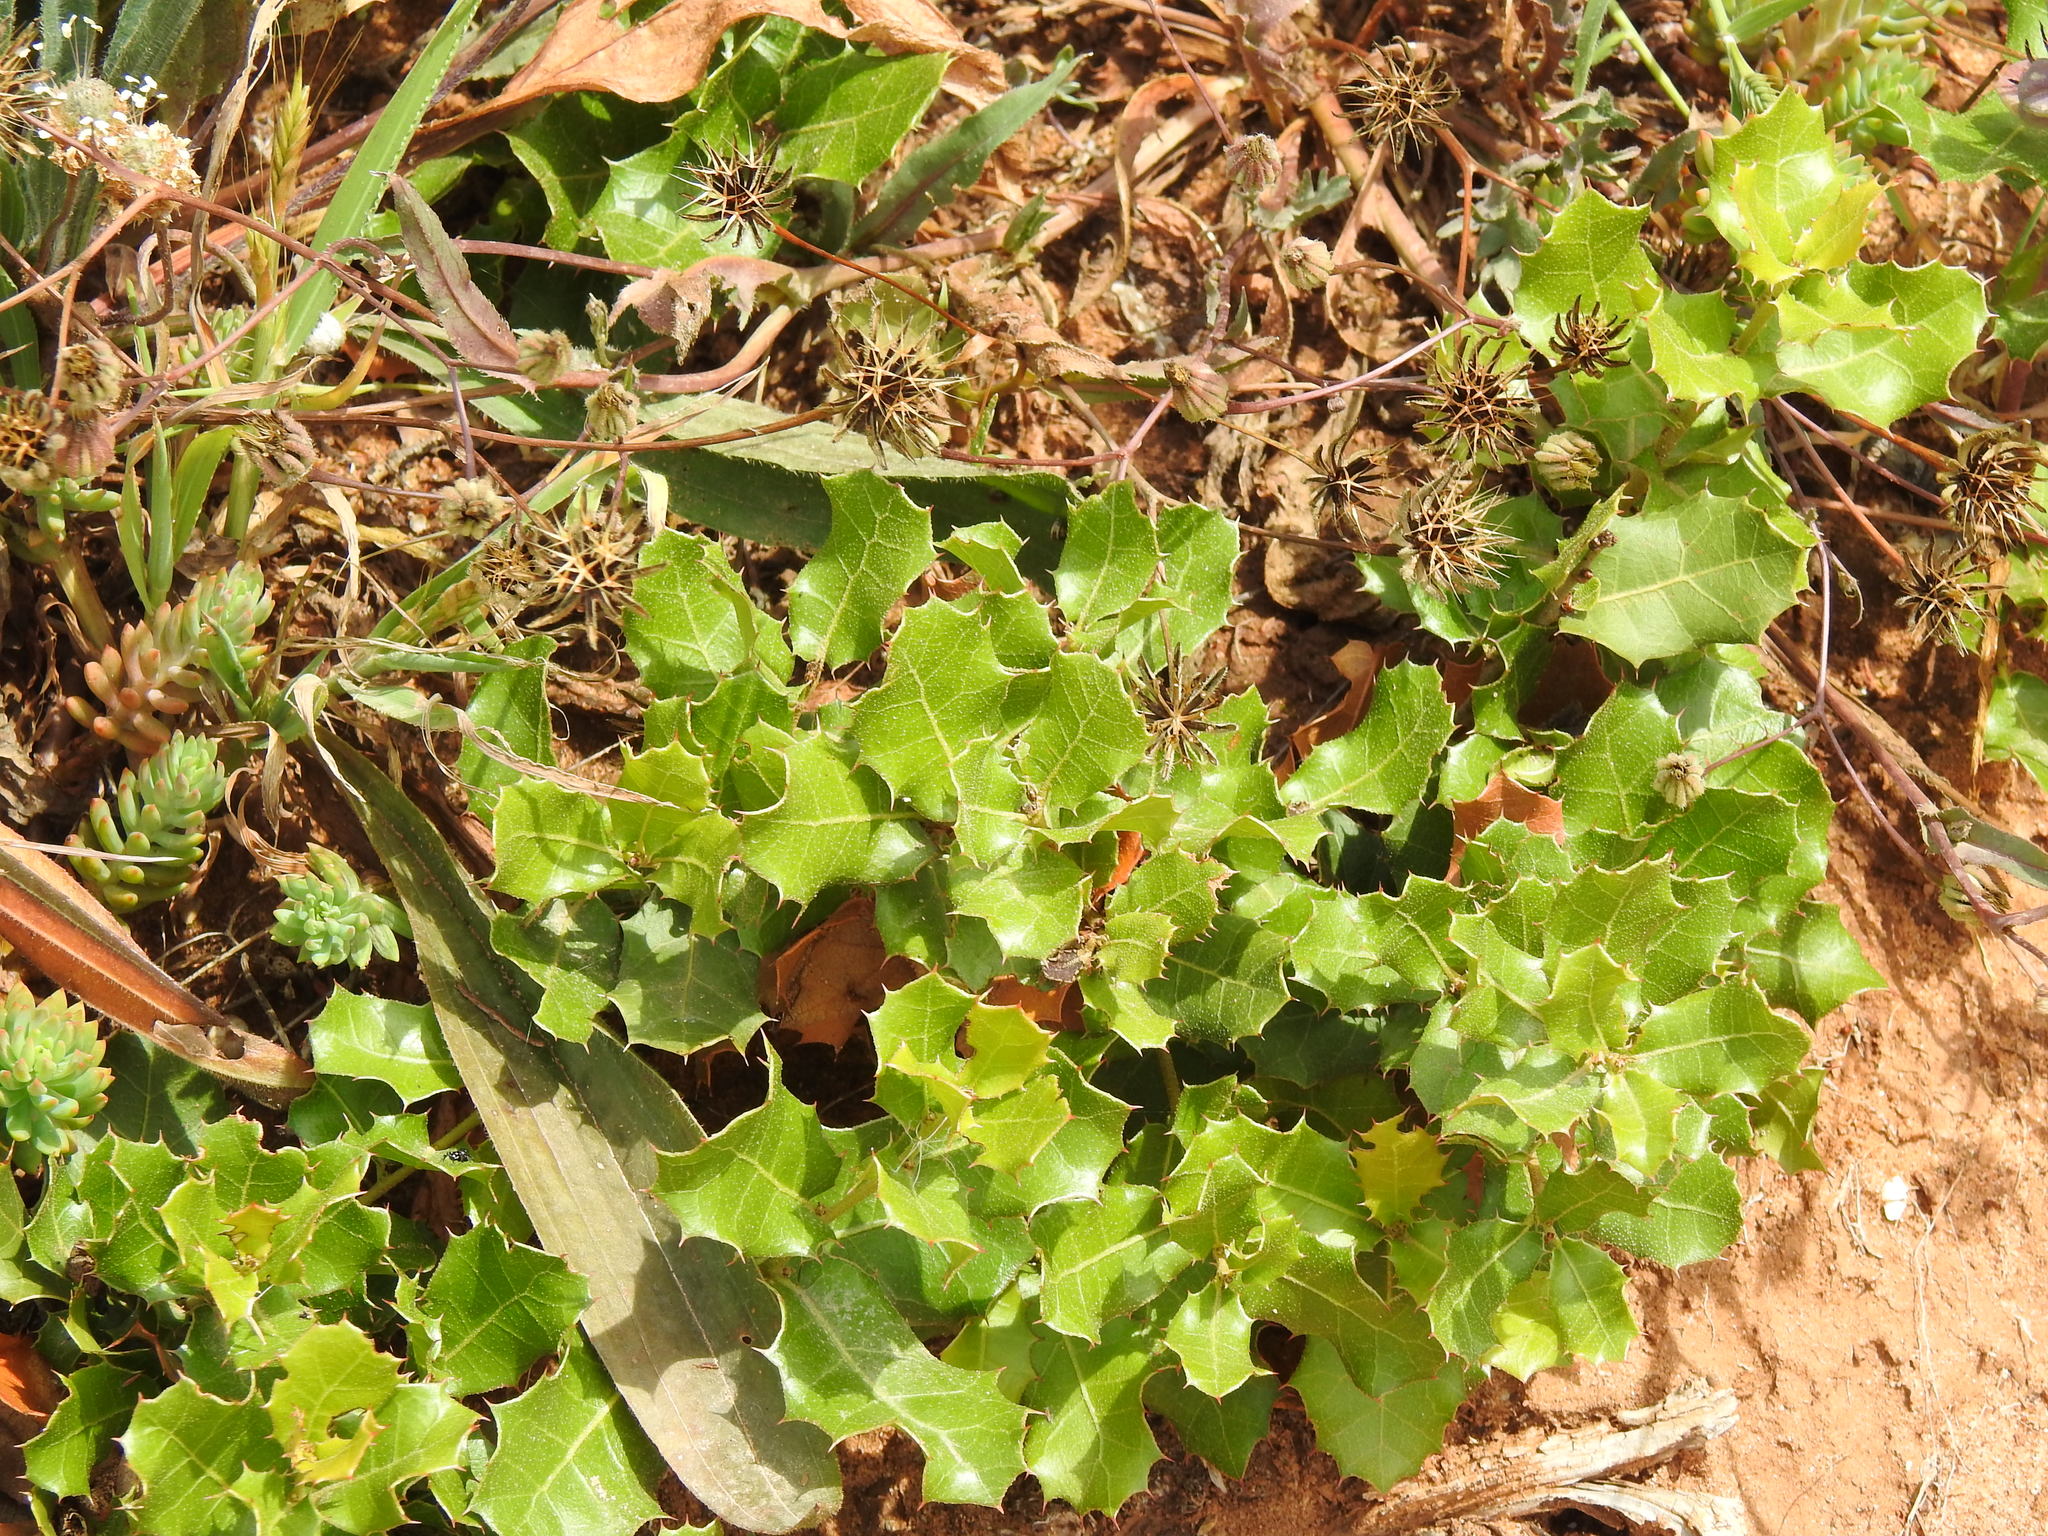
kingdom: Plantae
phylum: Tracheophyta
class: Magnoliopsida
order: Fagales
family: Fagaceae
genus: Quercus
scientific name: Quercus coccifera
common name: Kermes oak
